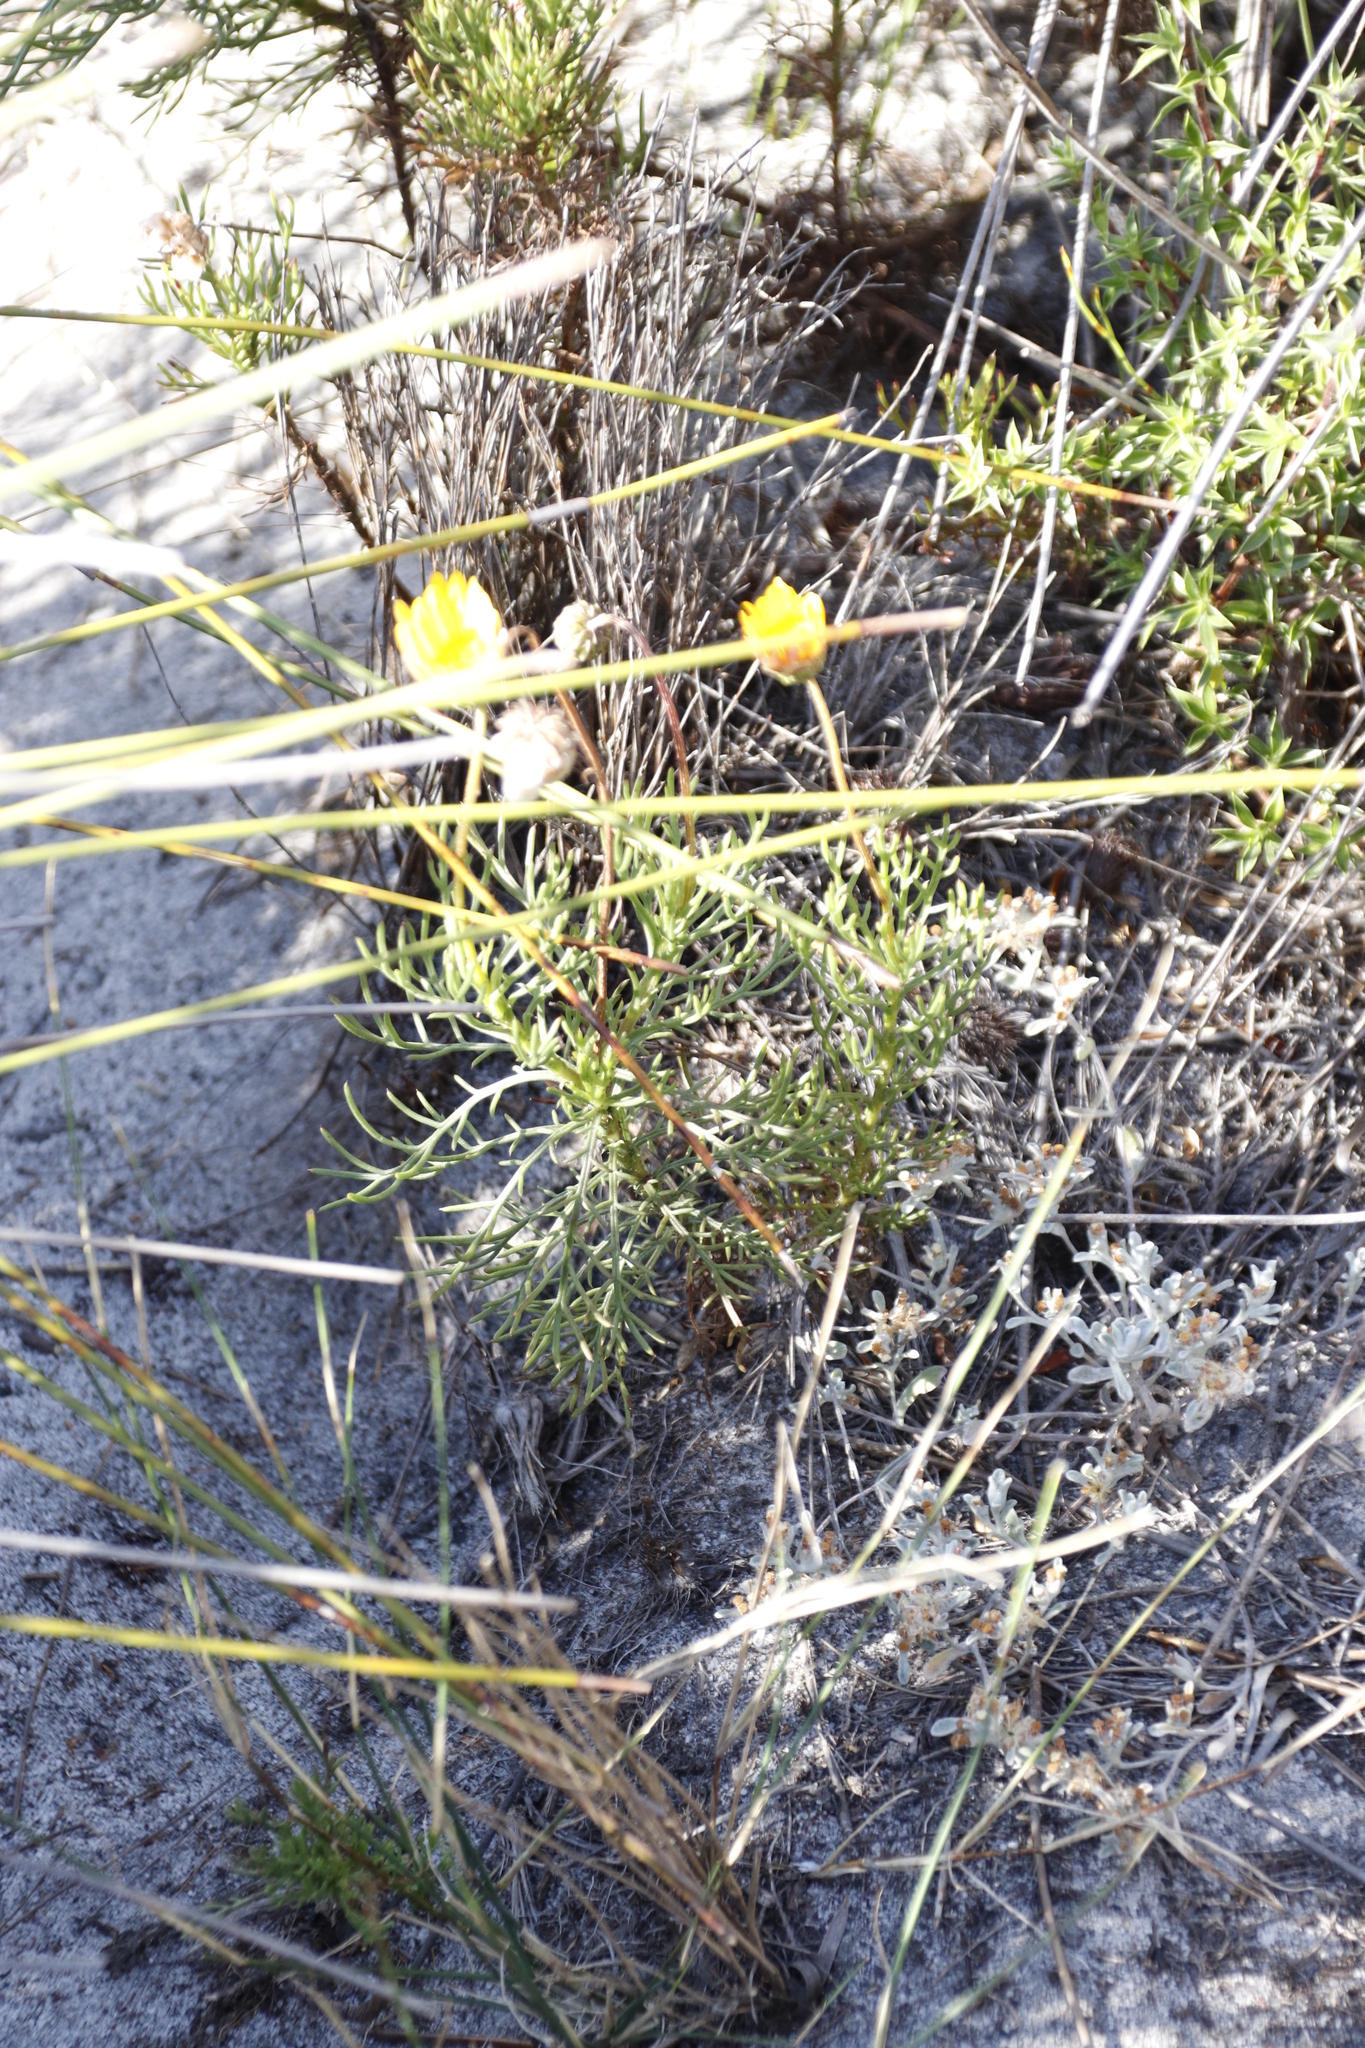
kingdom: Plantae
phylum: Tracheophyta
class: Magnoliopsida
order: Asterales
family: Asteraceae
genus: Euryops
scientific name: Euryops abrotanifolius
